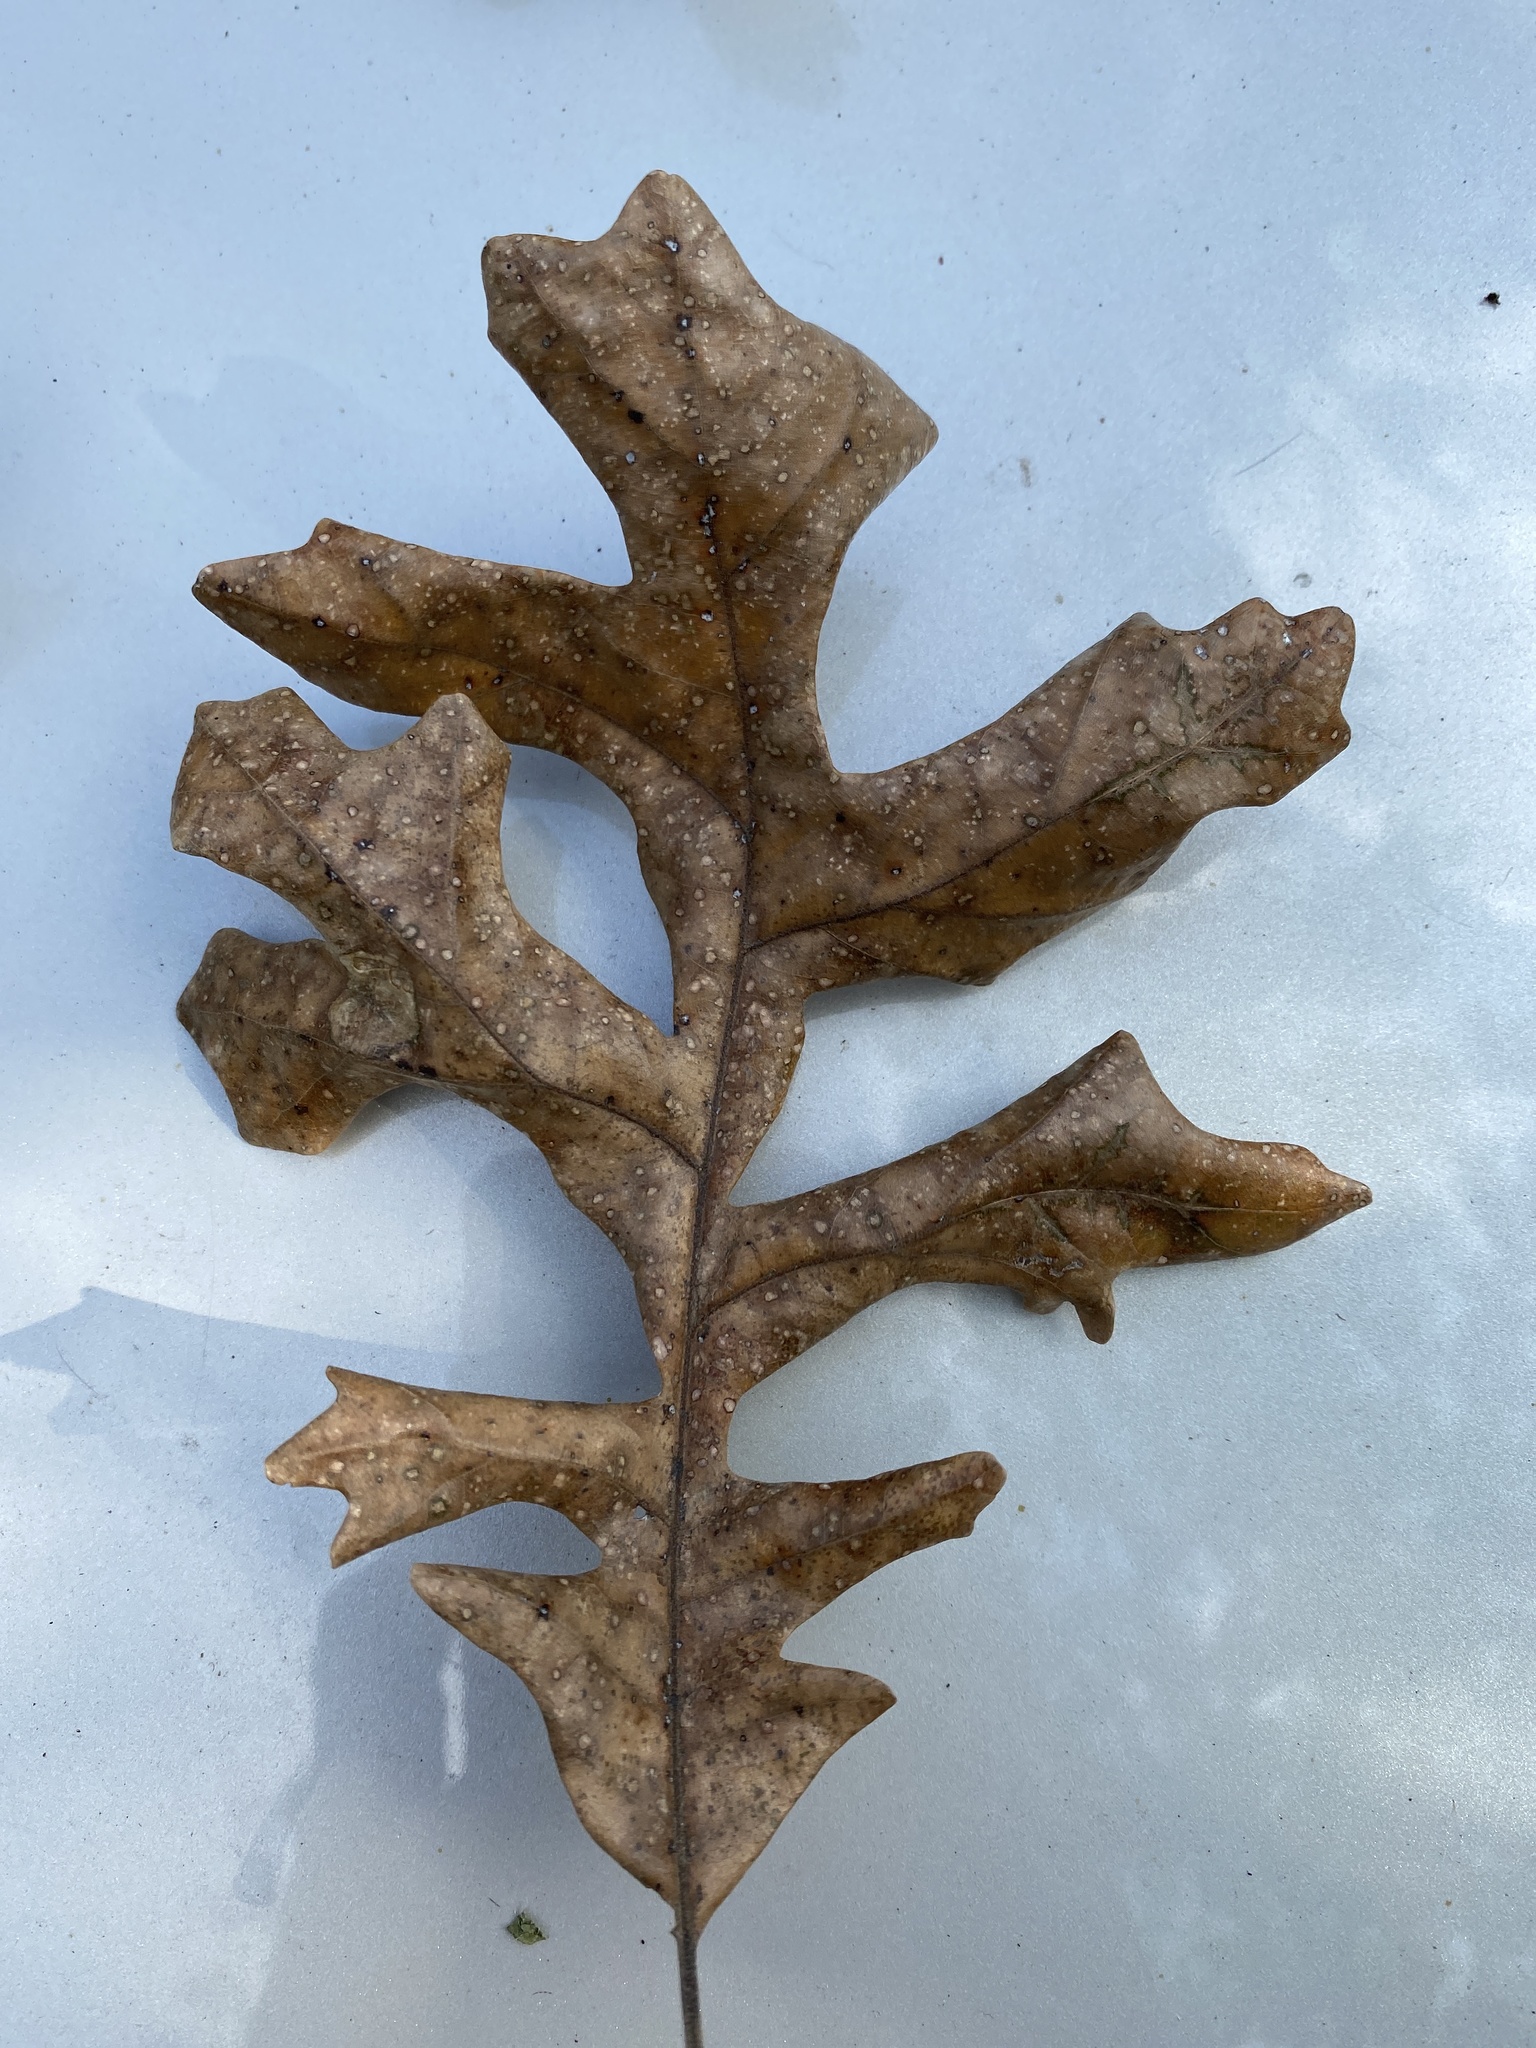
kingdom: Plantae
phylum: Tracheophyta
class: Magnoliopsida
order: Fagales
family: Fagaceae
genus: Quercus
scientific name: Quercus macrocarpa
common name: Bur oak
